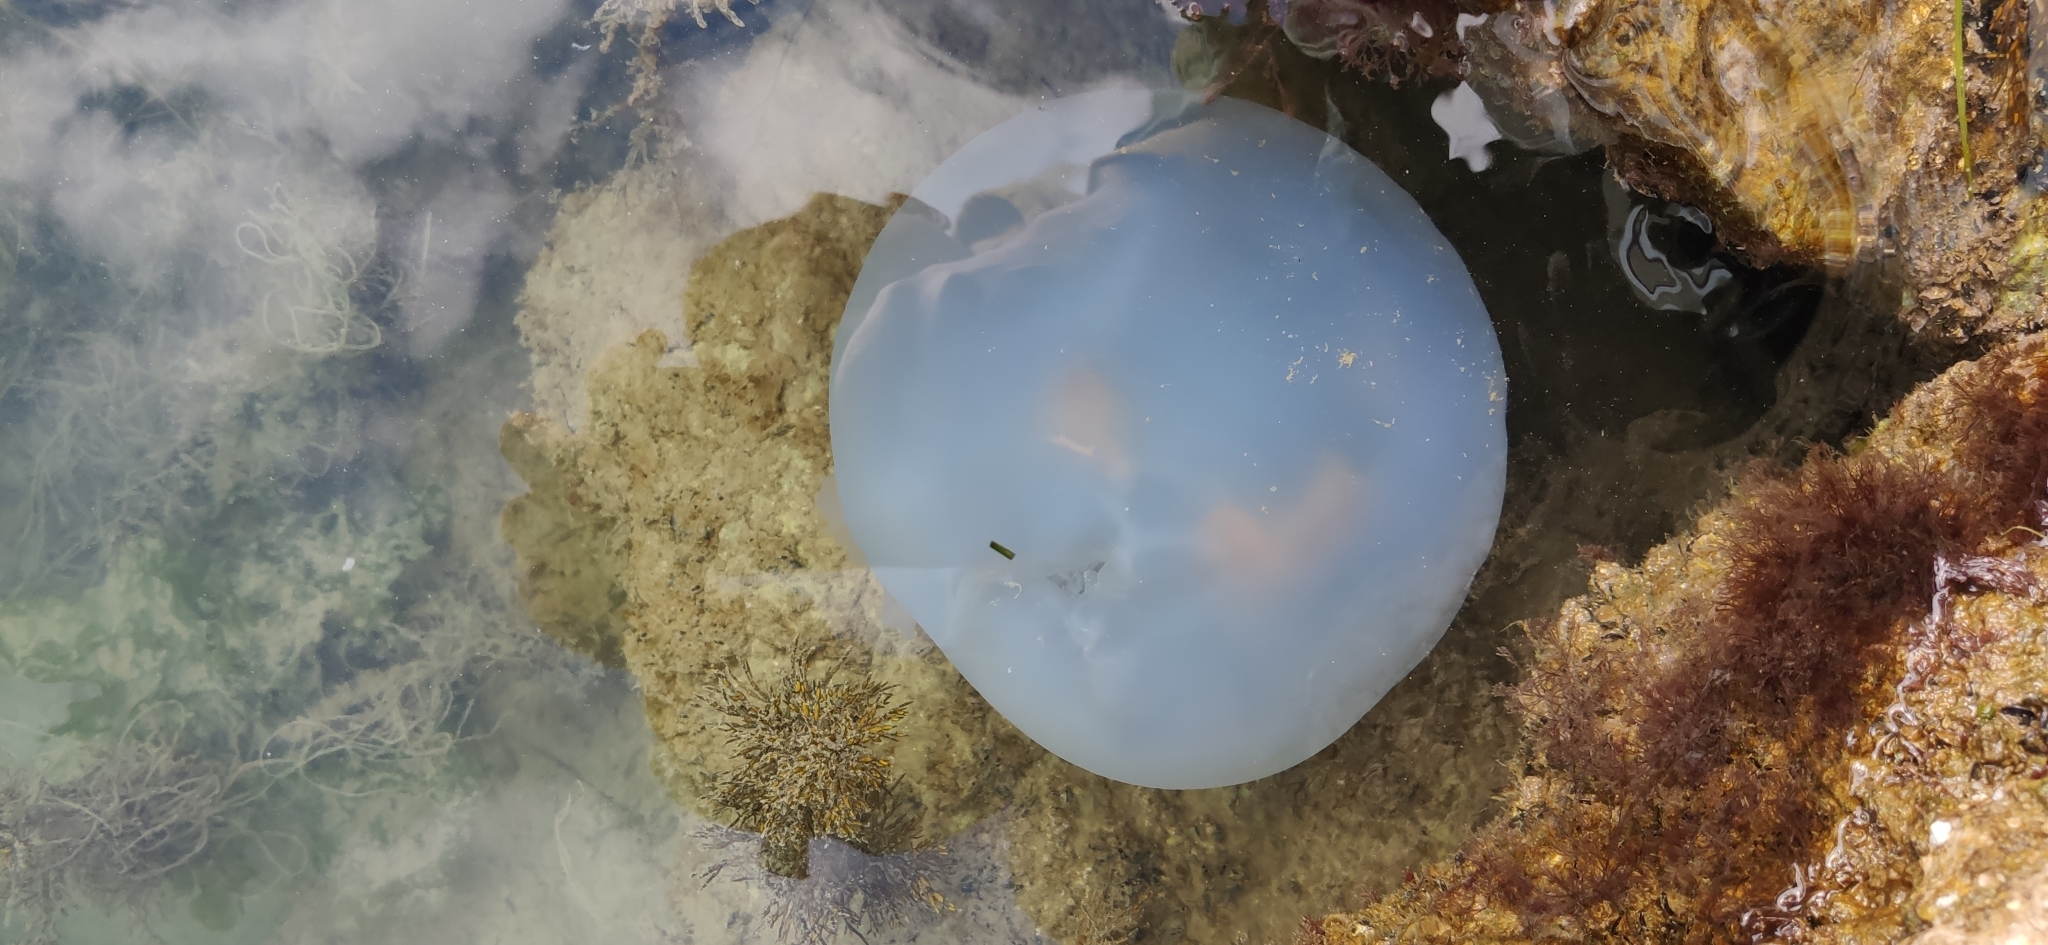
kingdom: Animalia
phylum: Cnidaria
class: Scyphozoa
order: Rhizostomeae
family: Rhizostomatidae
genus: Rhizostoma
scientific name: Rhizostoma pulmo
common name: Barrel jellyfish
